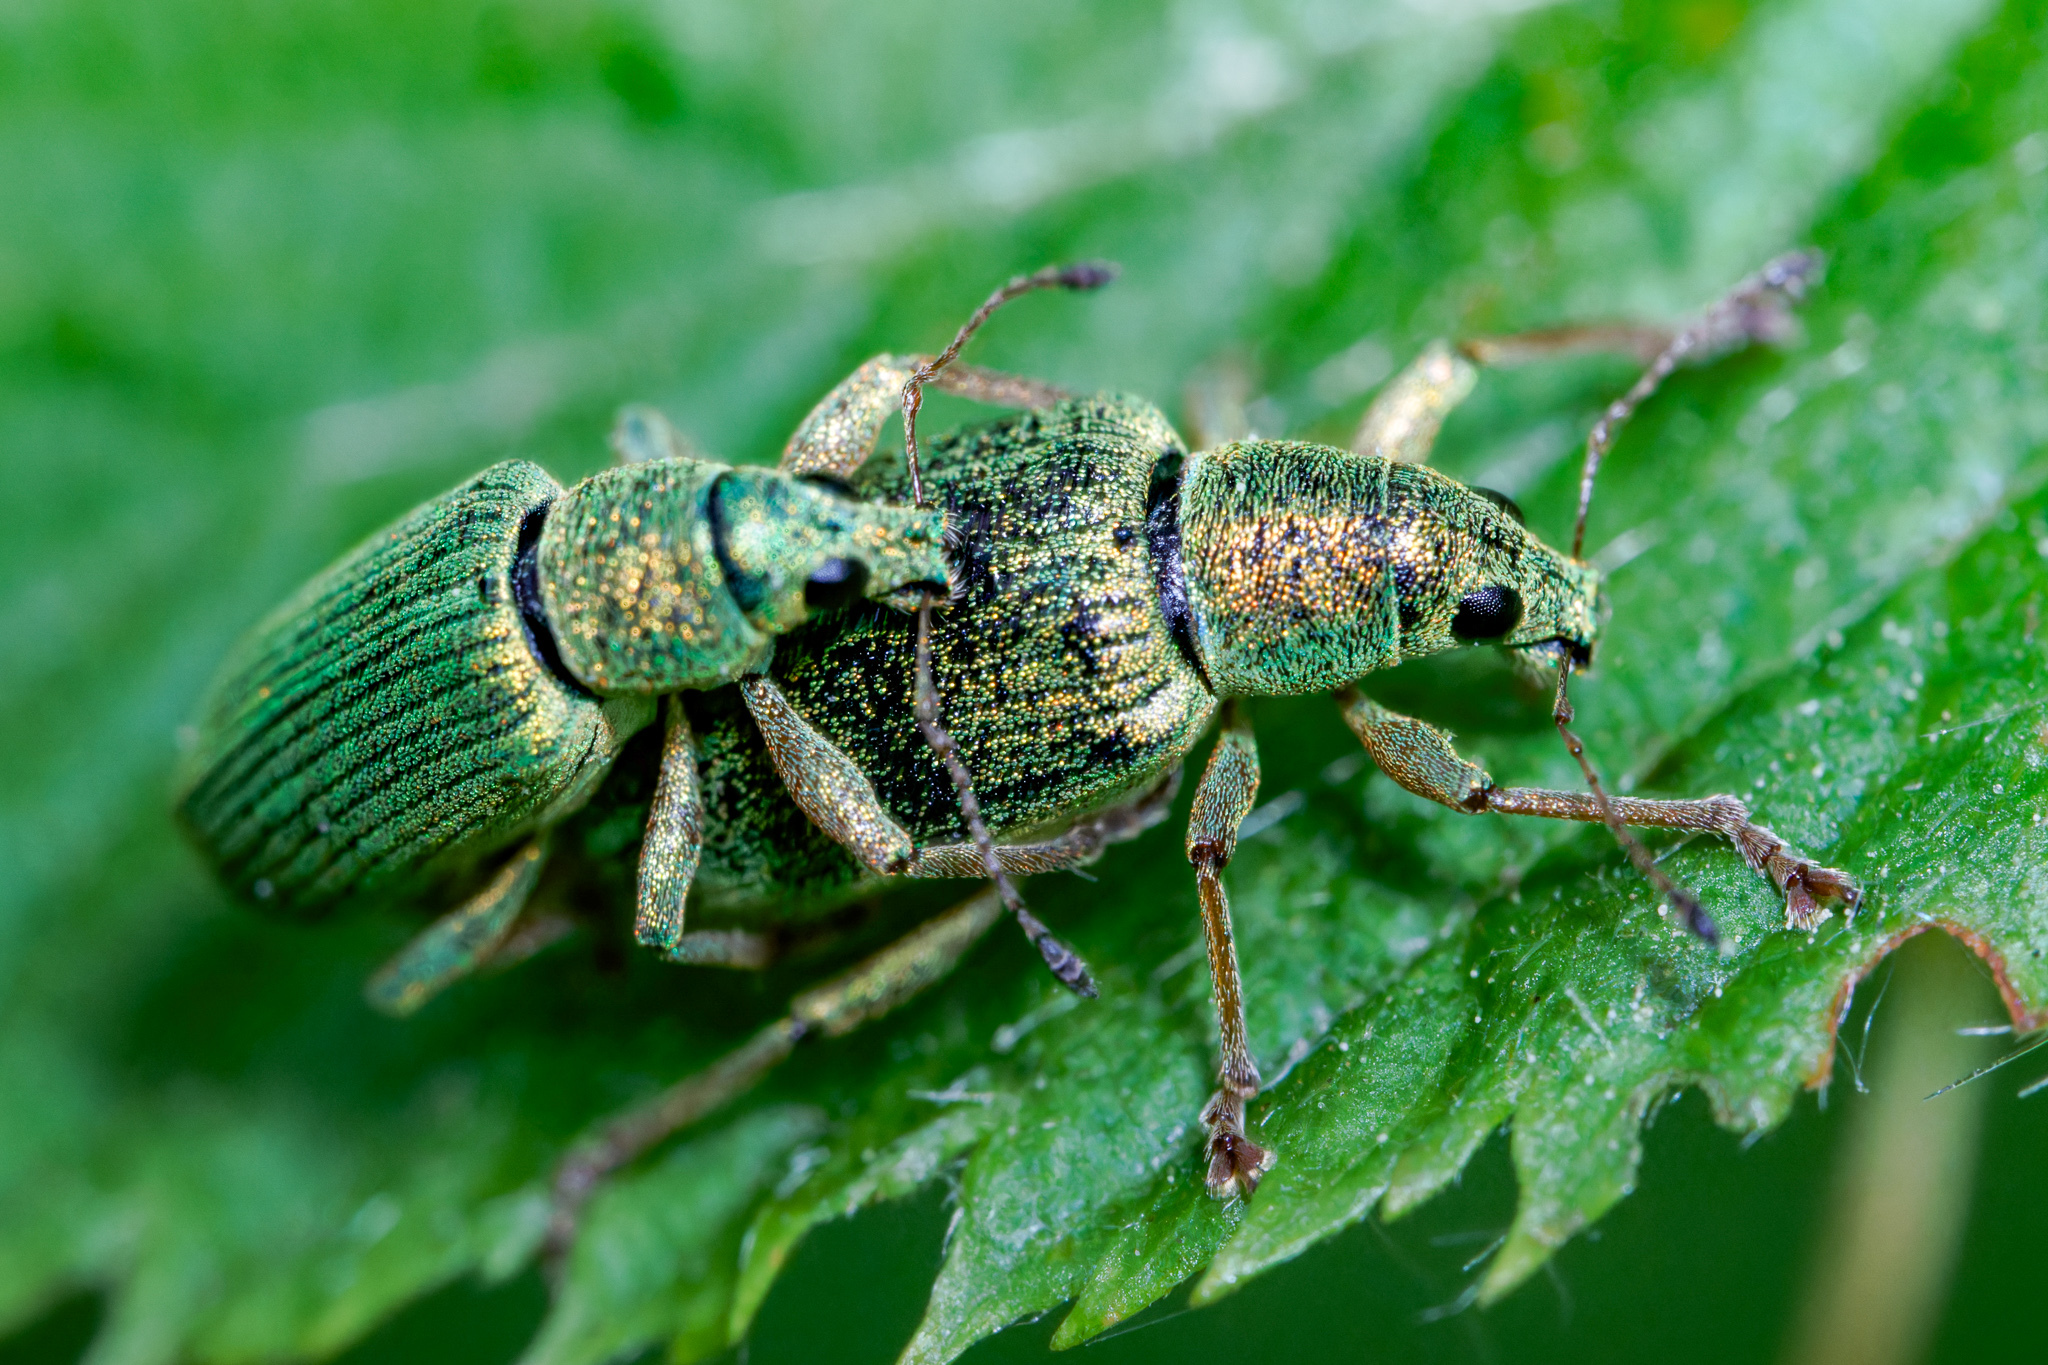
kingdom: Animalia
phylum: Arthropoda
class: Insecta
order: Coleoptera
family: Curculionidae
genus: Polydrusus
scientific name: Polydrusus formosus
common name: Weevil
